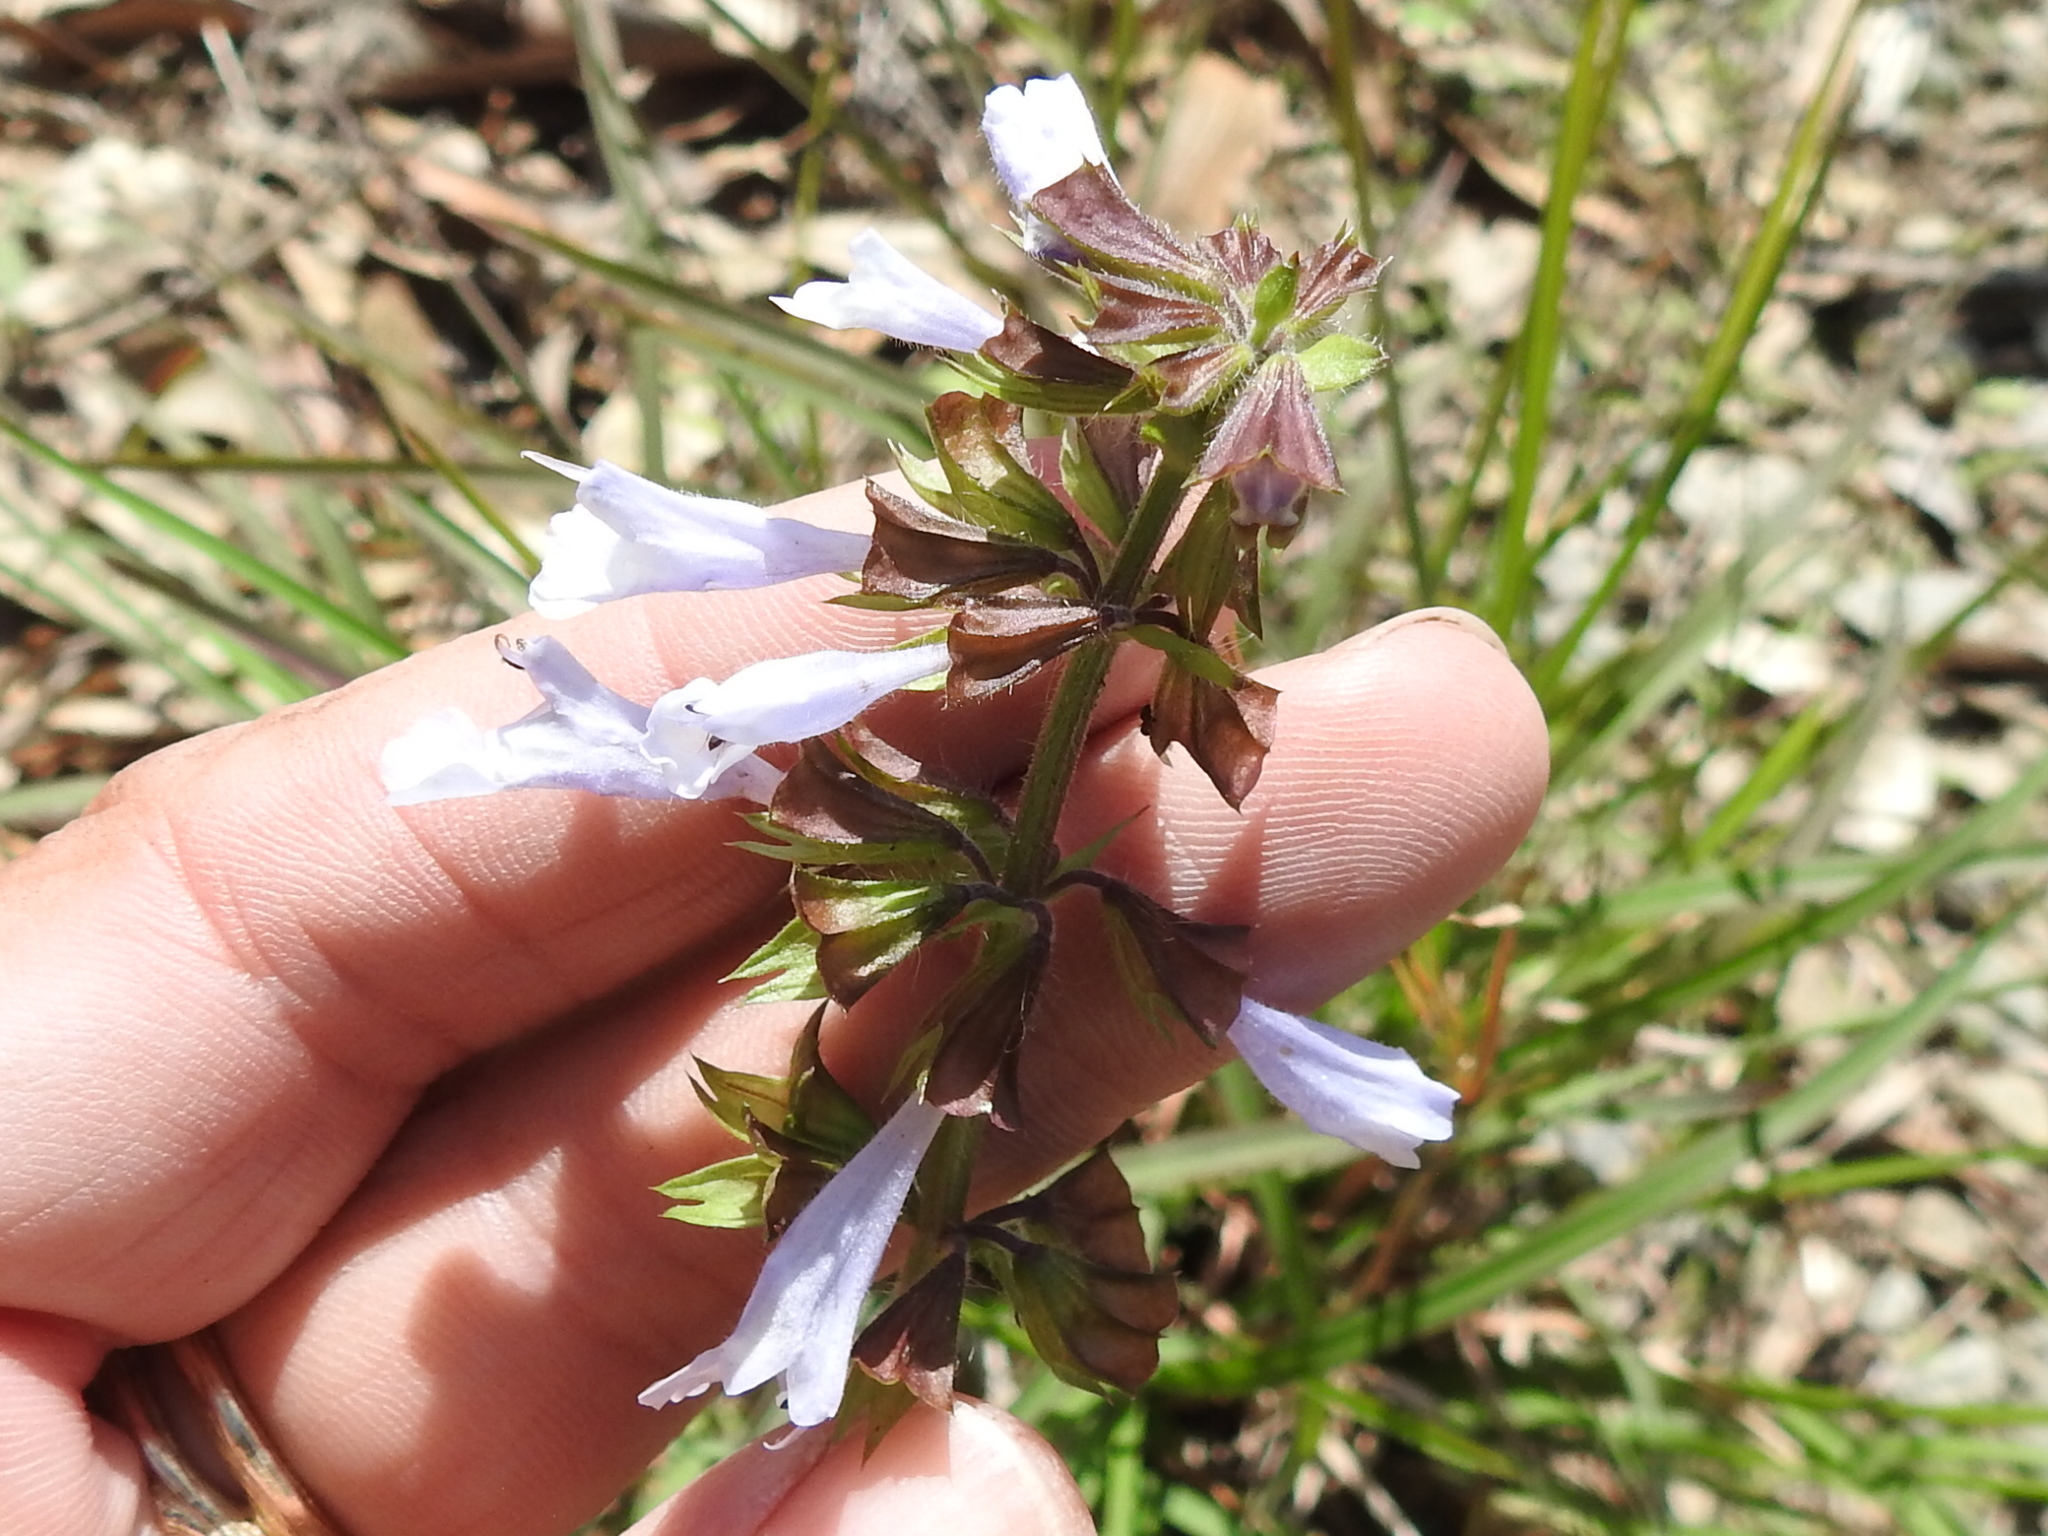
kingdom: Plantae
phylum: Tracheophyta
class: Magnoliopsida
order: Lamiales
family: Lamiaceae
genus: Salvia
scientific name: Salvia lyrata
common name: Cancerweed
